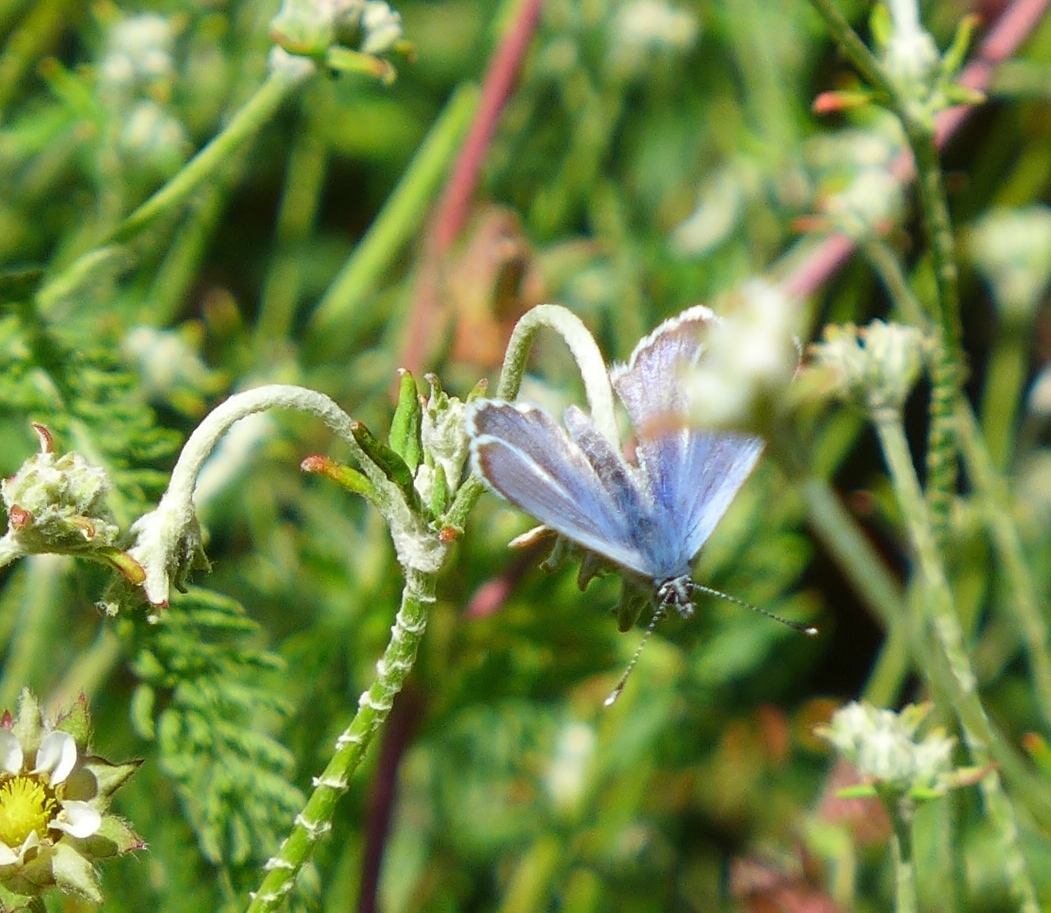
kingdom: Animalia
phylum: Arthropoda
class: Insecta
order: Lepidoptera
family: Lycaenidae
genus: Glaucopsyche
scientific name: Glaucopsyche lygdamus
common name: Silvery blue
